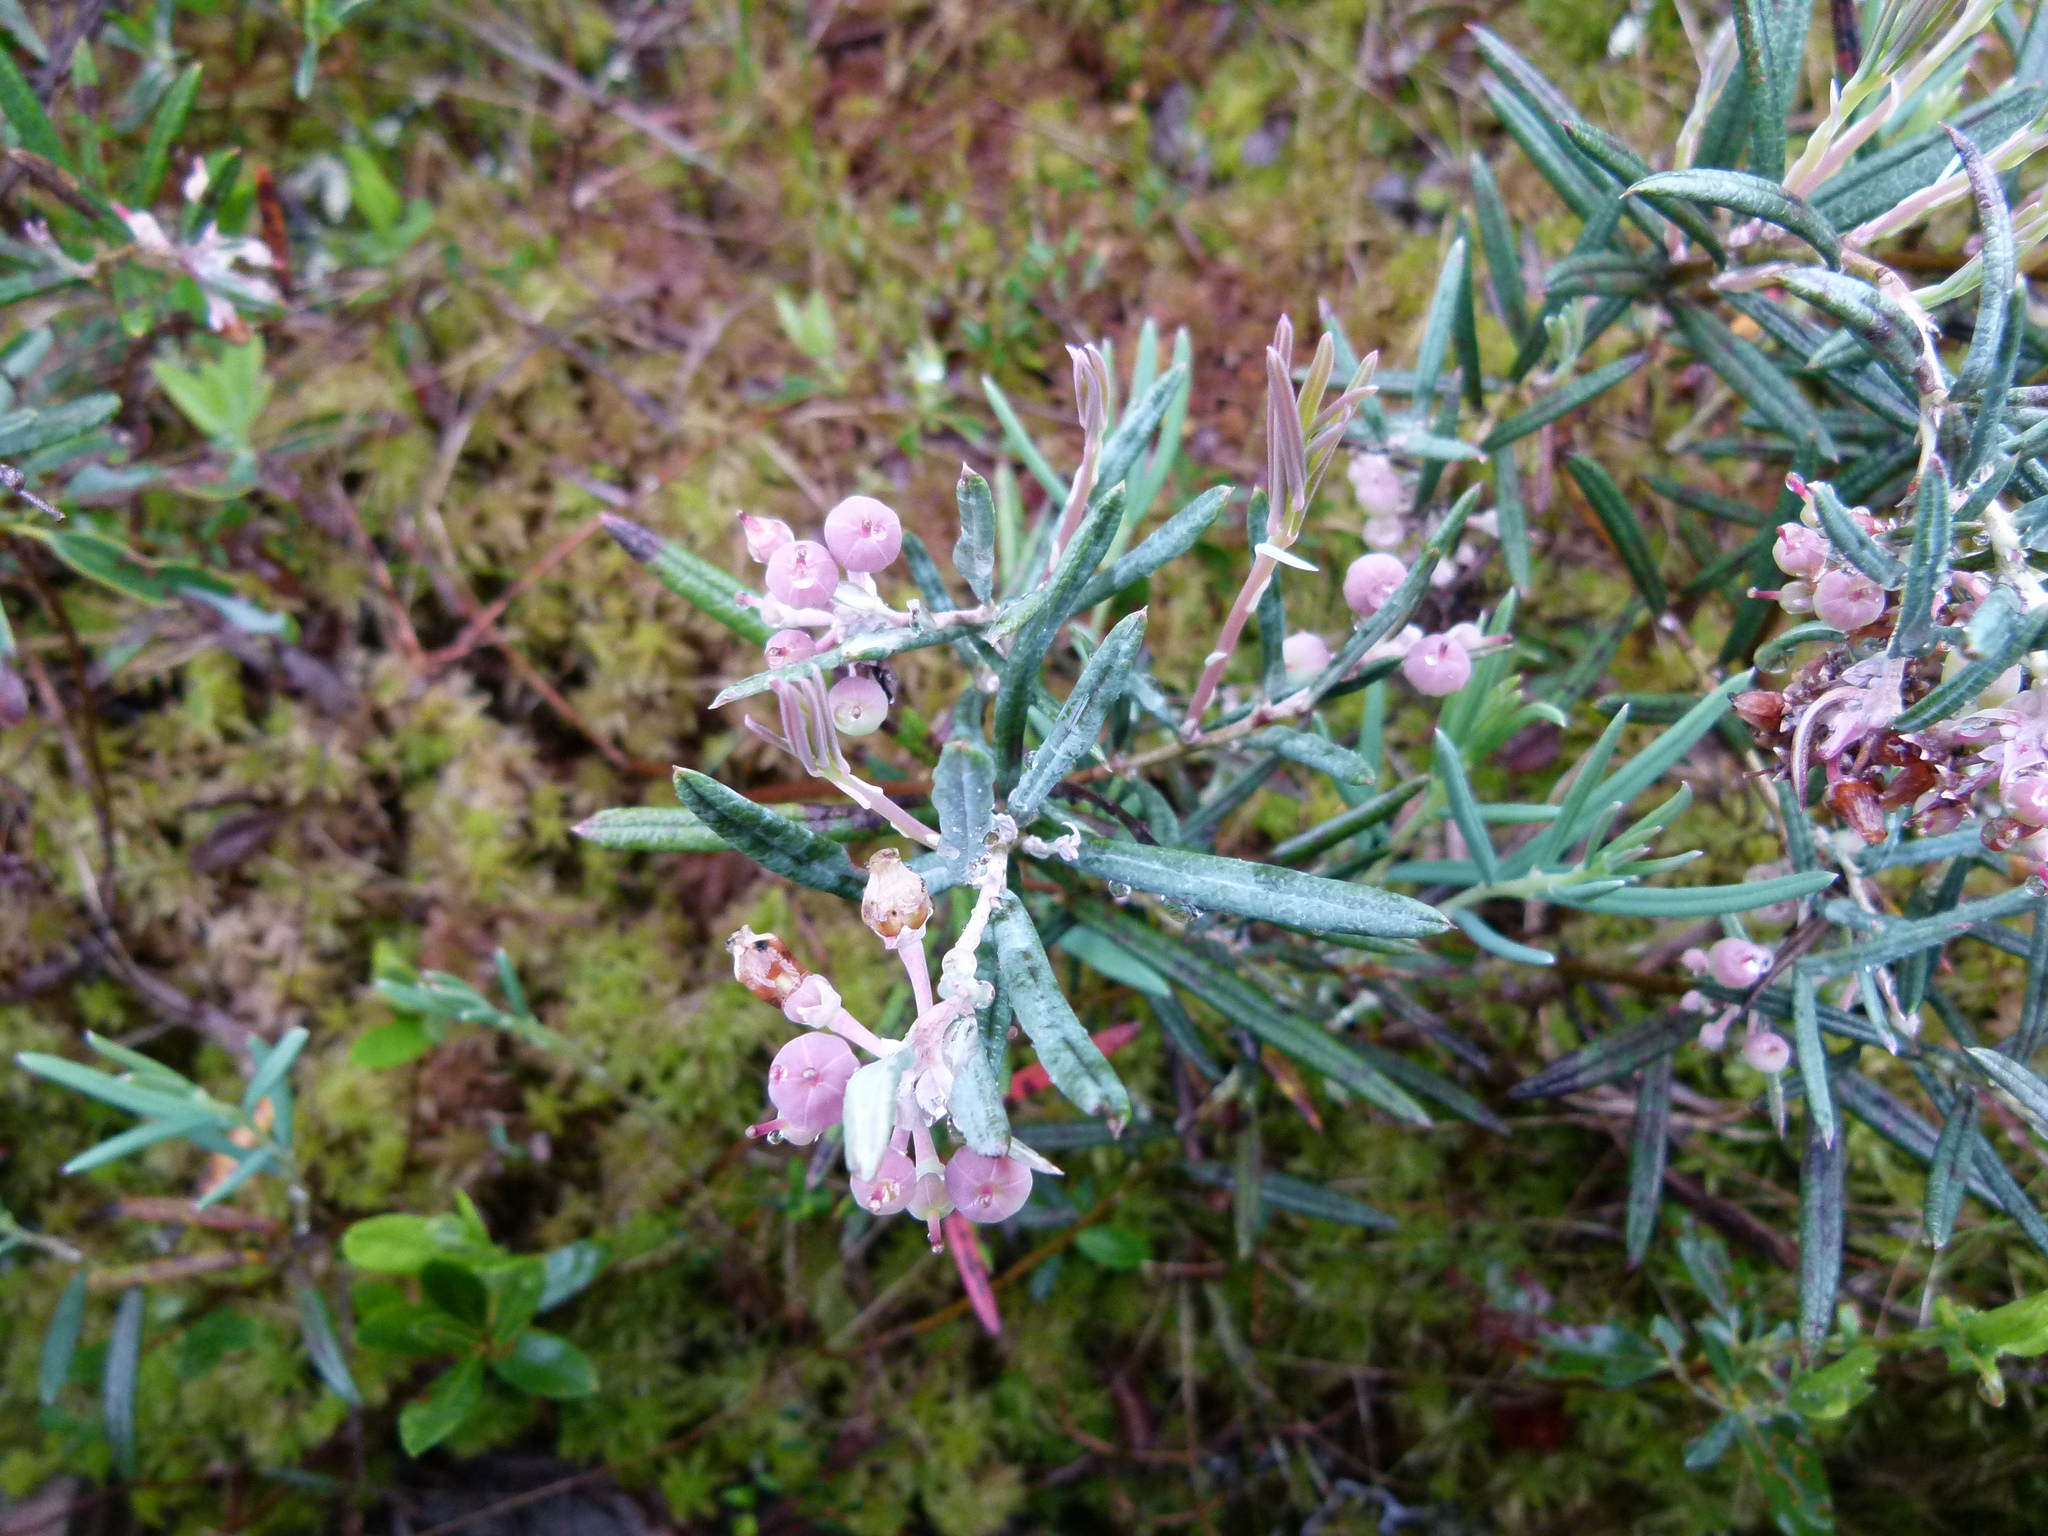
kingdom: Plantae
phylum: Tracheophyta
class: Magnoliopsida
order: Ericales
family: Ericaceae
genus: Andromeda
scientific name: Andromeda polifolia
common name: Bog-rosemary
